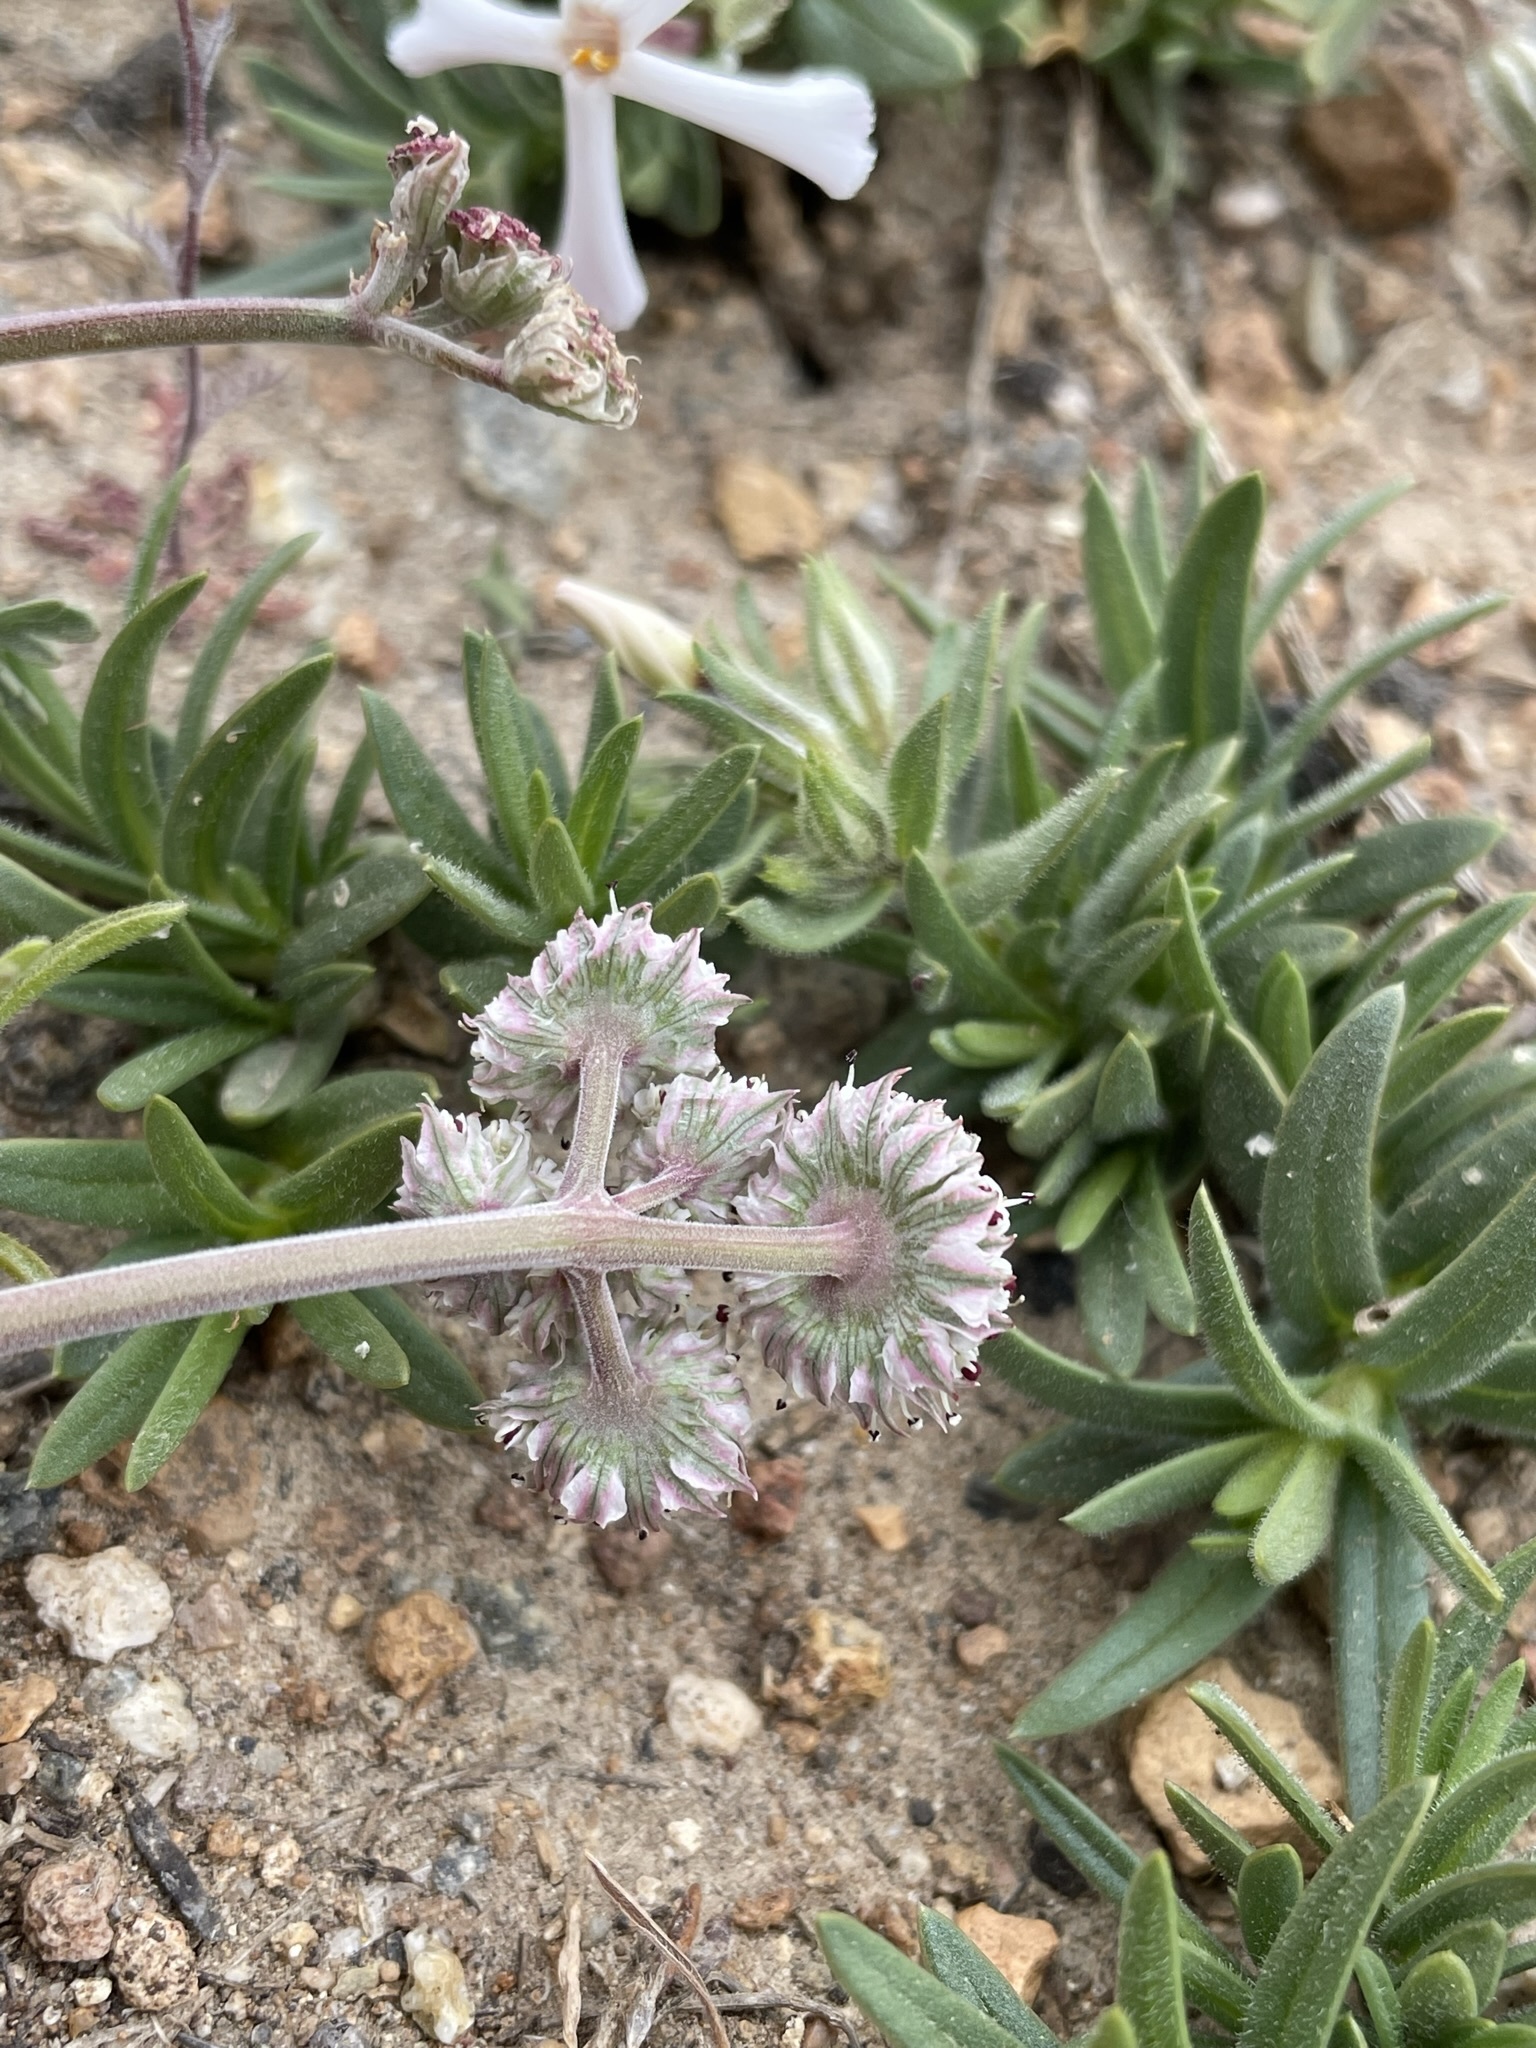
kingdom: Plantae
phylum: Tracheophyta
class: Magnoliopsida
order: Apiales
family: Apiaceae
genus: Lomatium
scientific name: Lomatium nevadense
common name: Nevada lomatium
